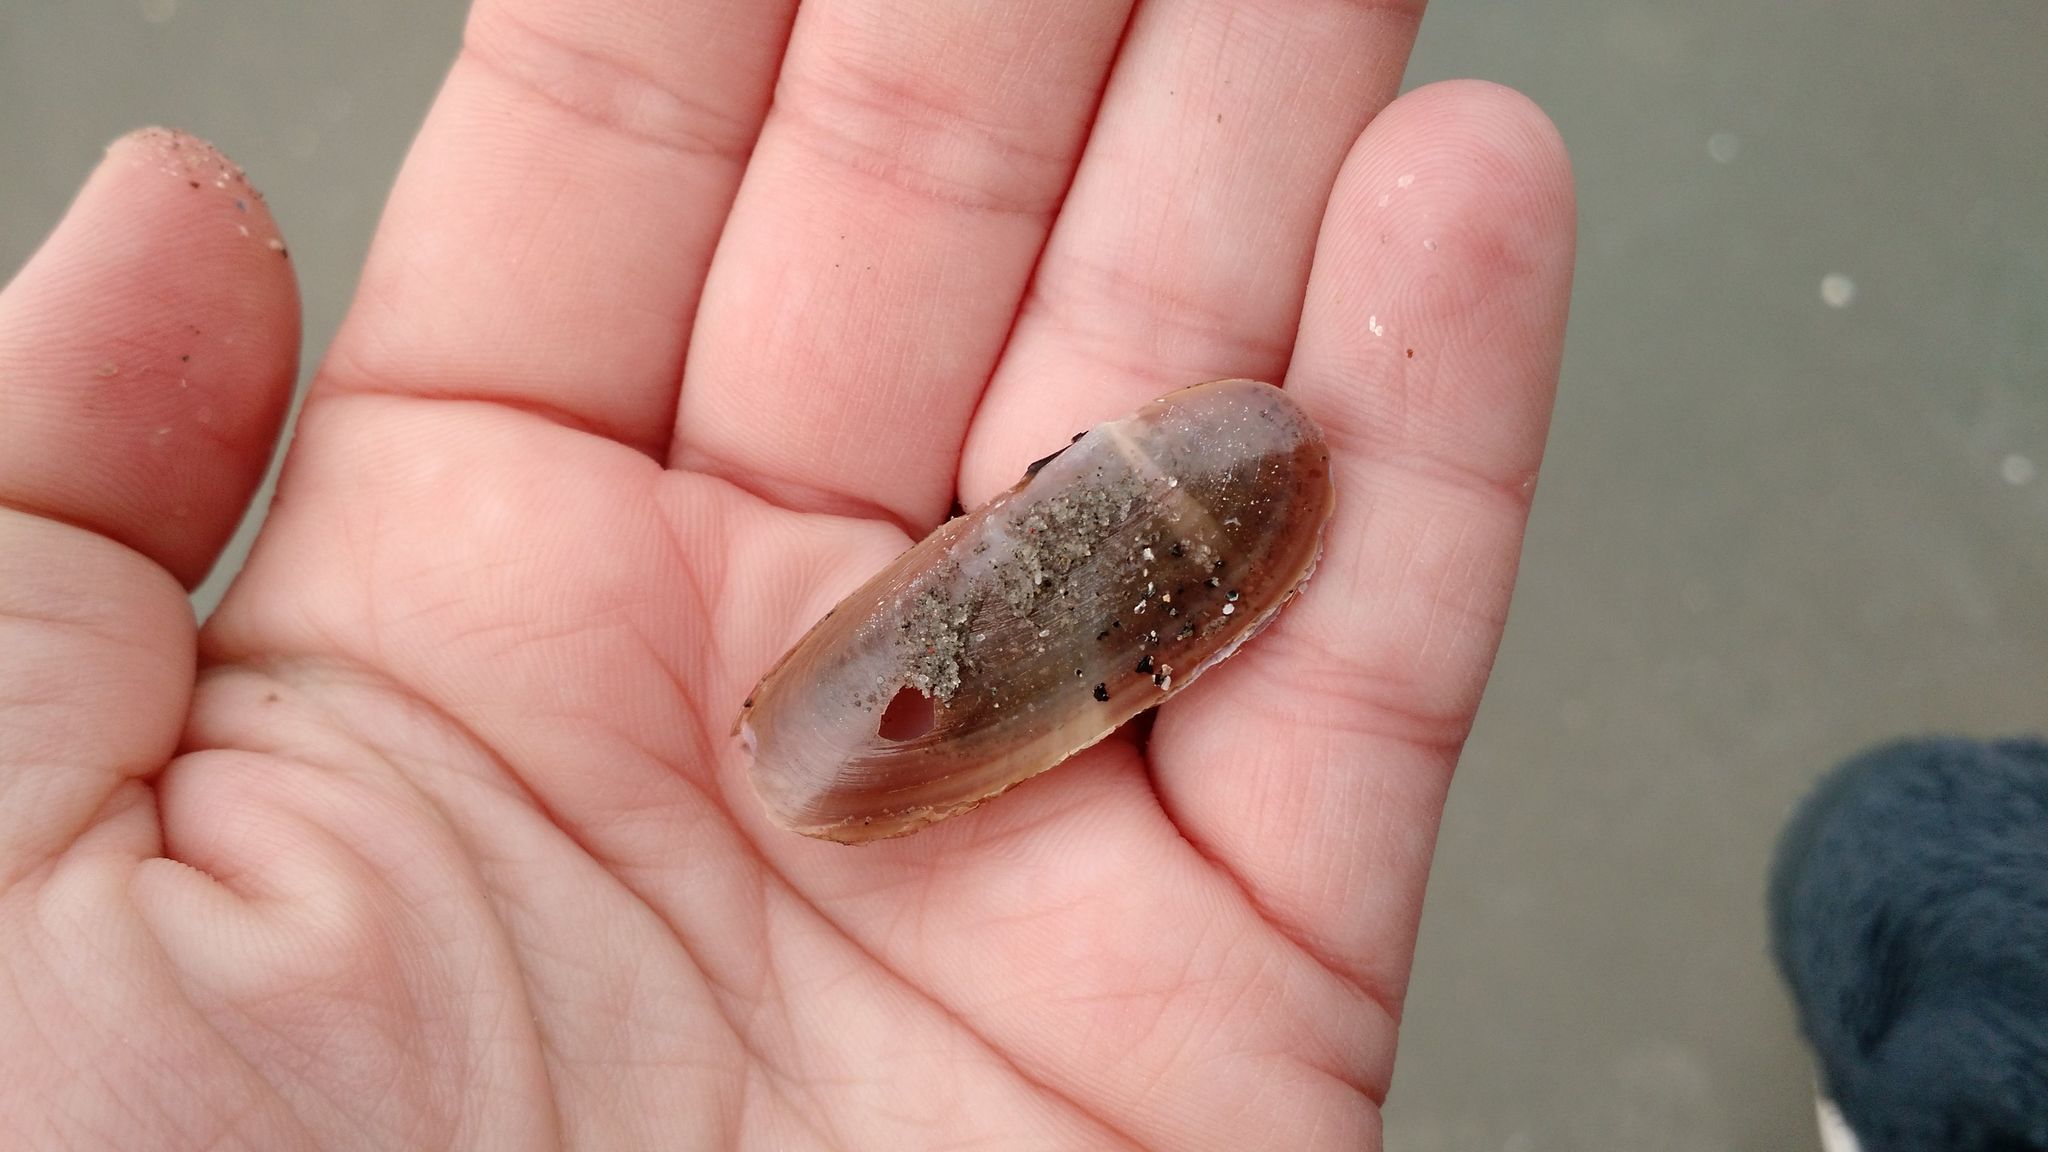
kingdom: Animalia
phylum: Mollusca
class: Bivalvia
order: Adapedonta
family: Pharidae
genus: Siliqua
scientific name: Siliqua costata
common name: Atlantic razor
